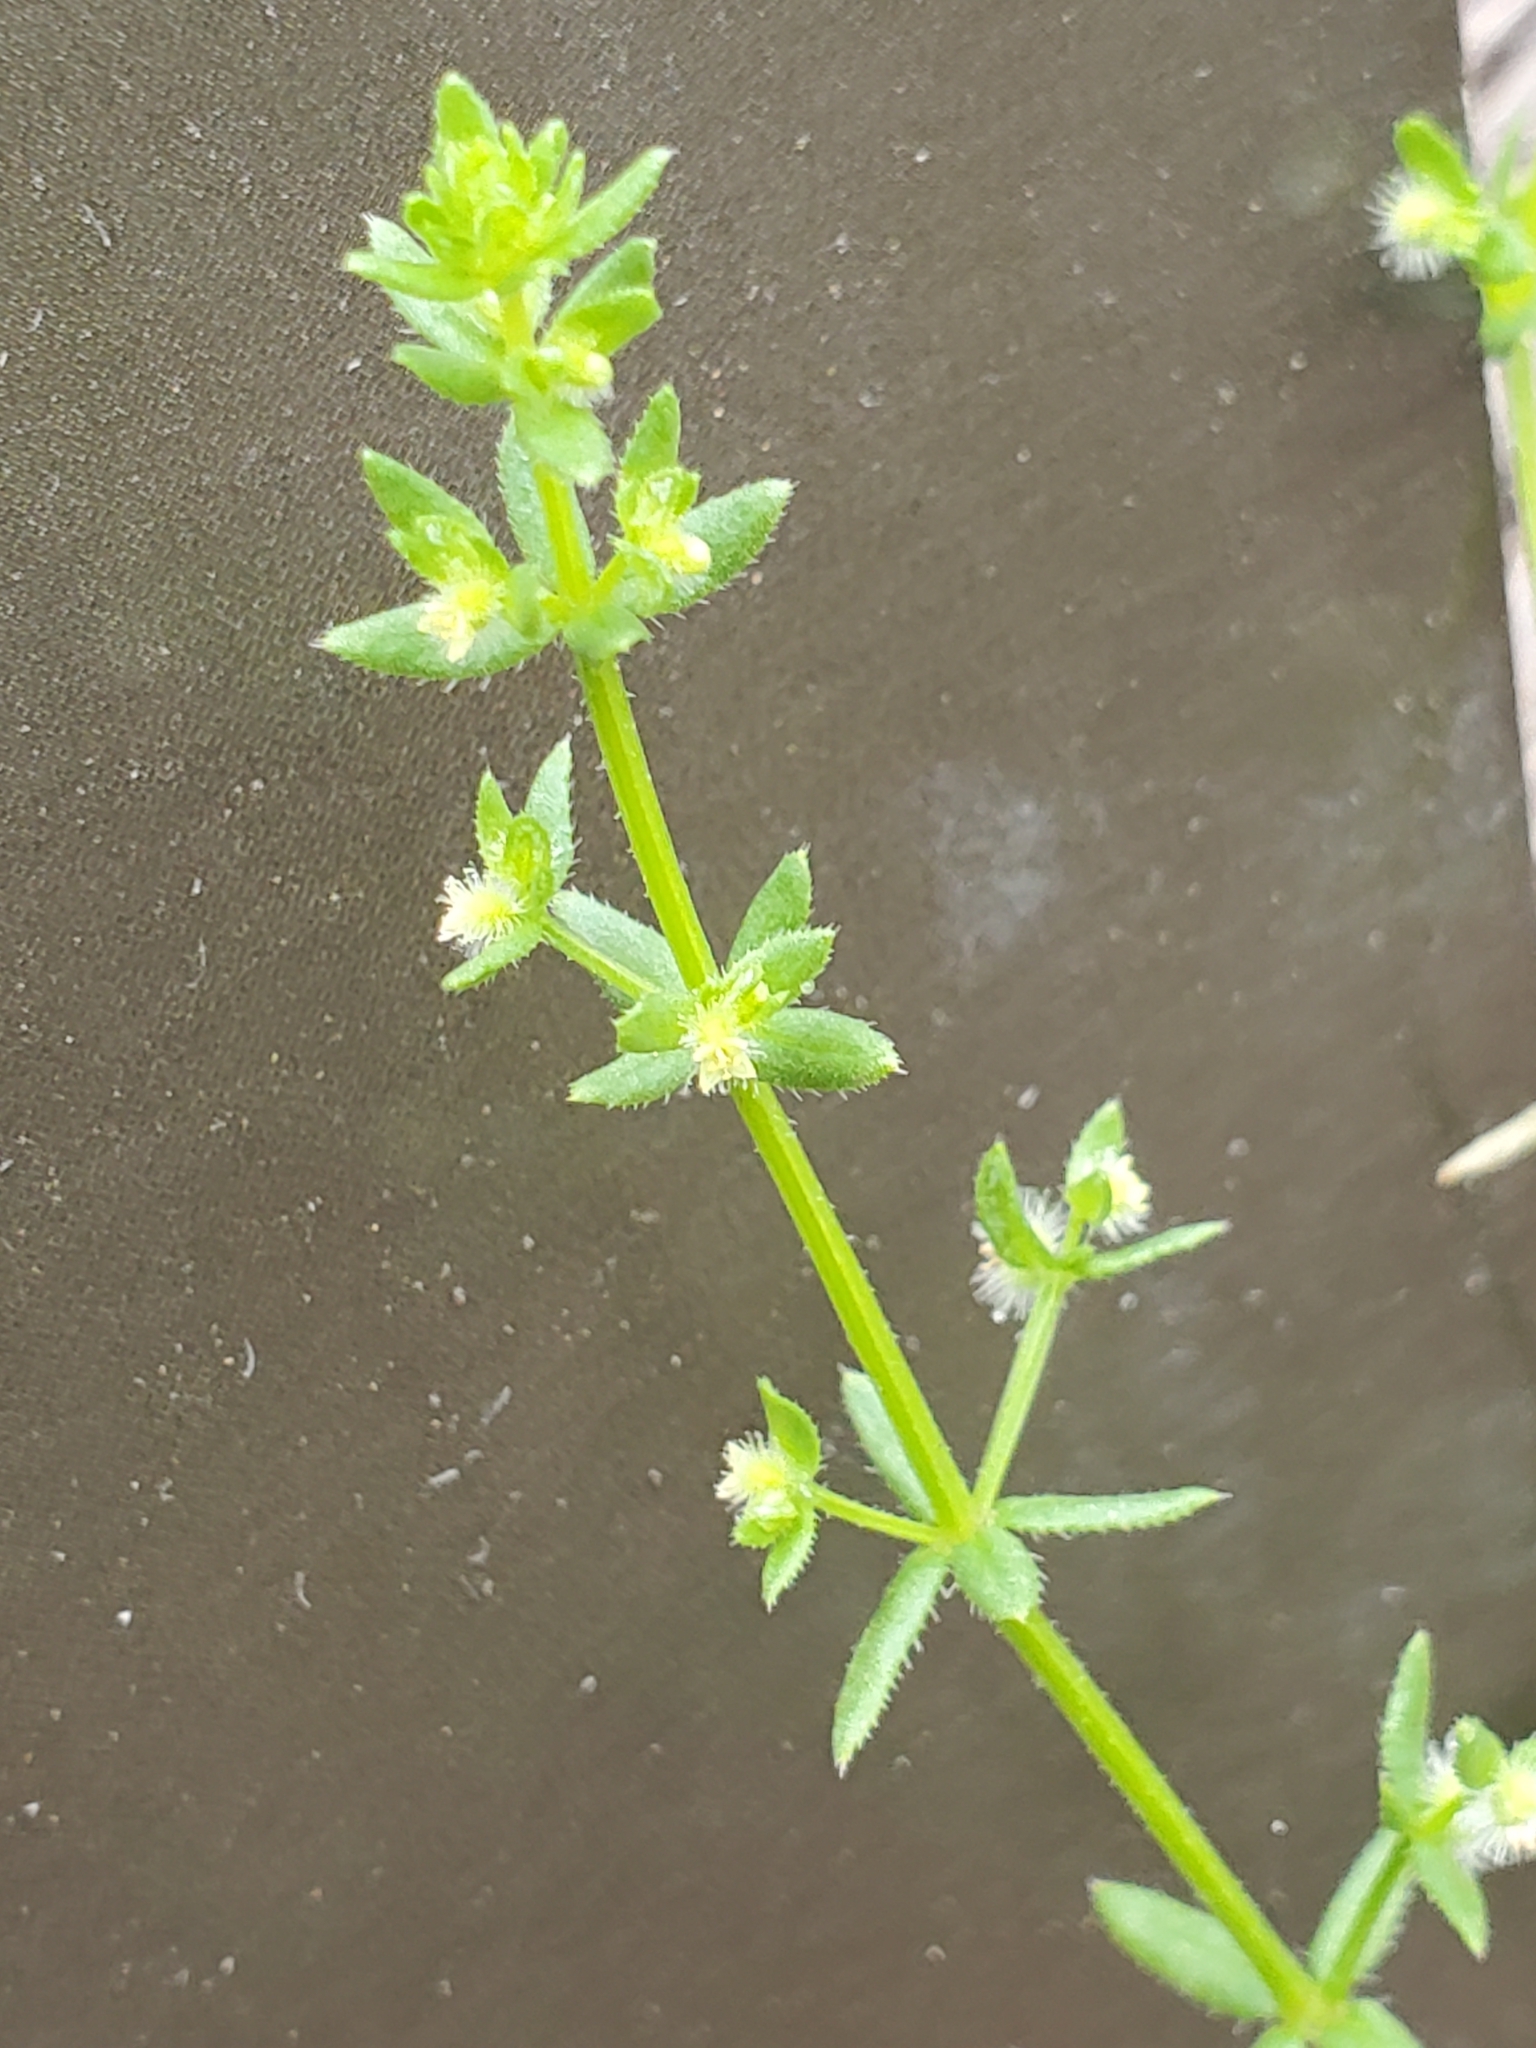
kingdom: Plantae
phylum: Tracheophyta
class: Magnoliopsida
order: Gentianales
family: Rubiaceae
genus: Galium
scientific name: Galium virgatum
